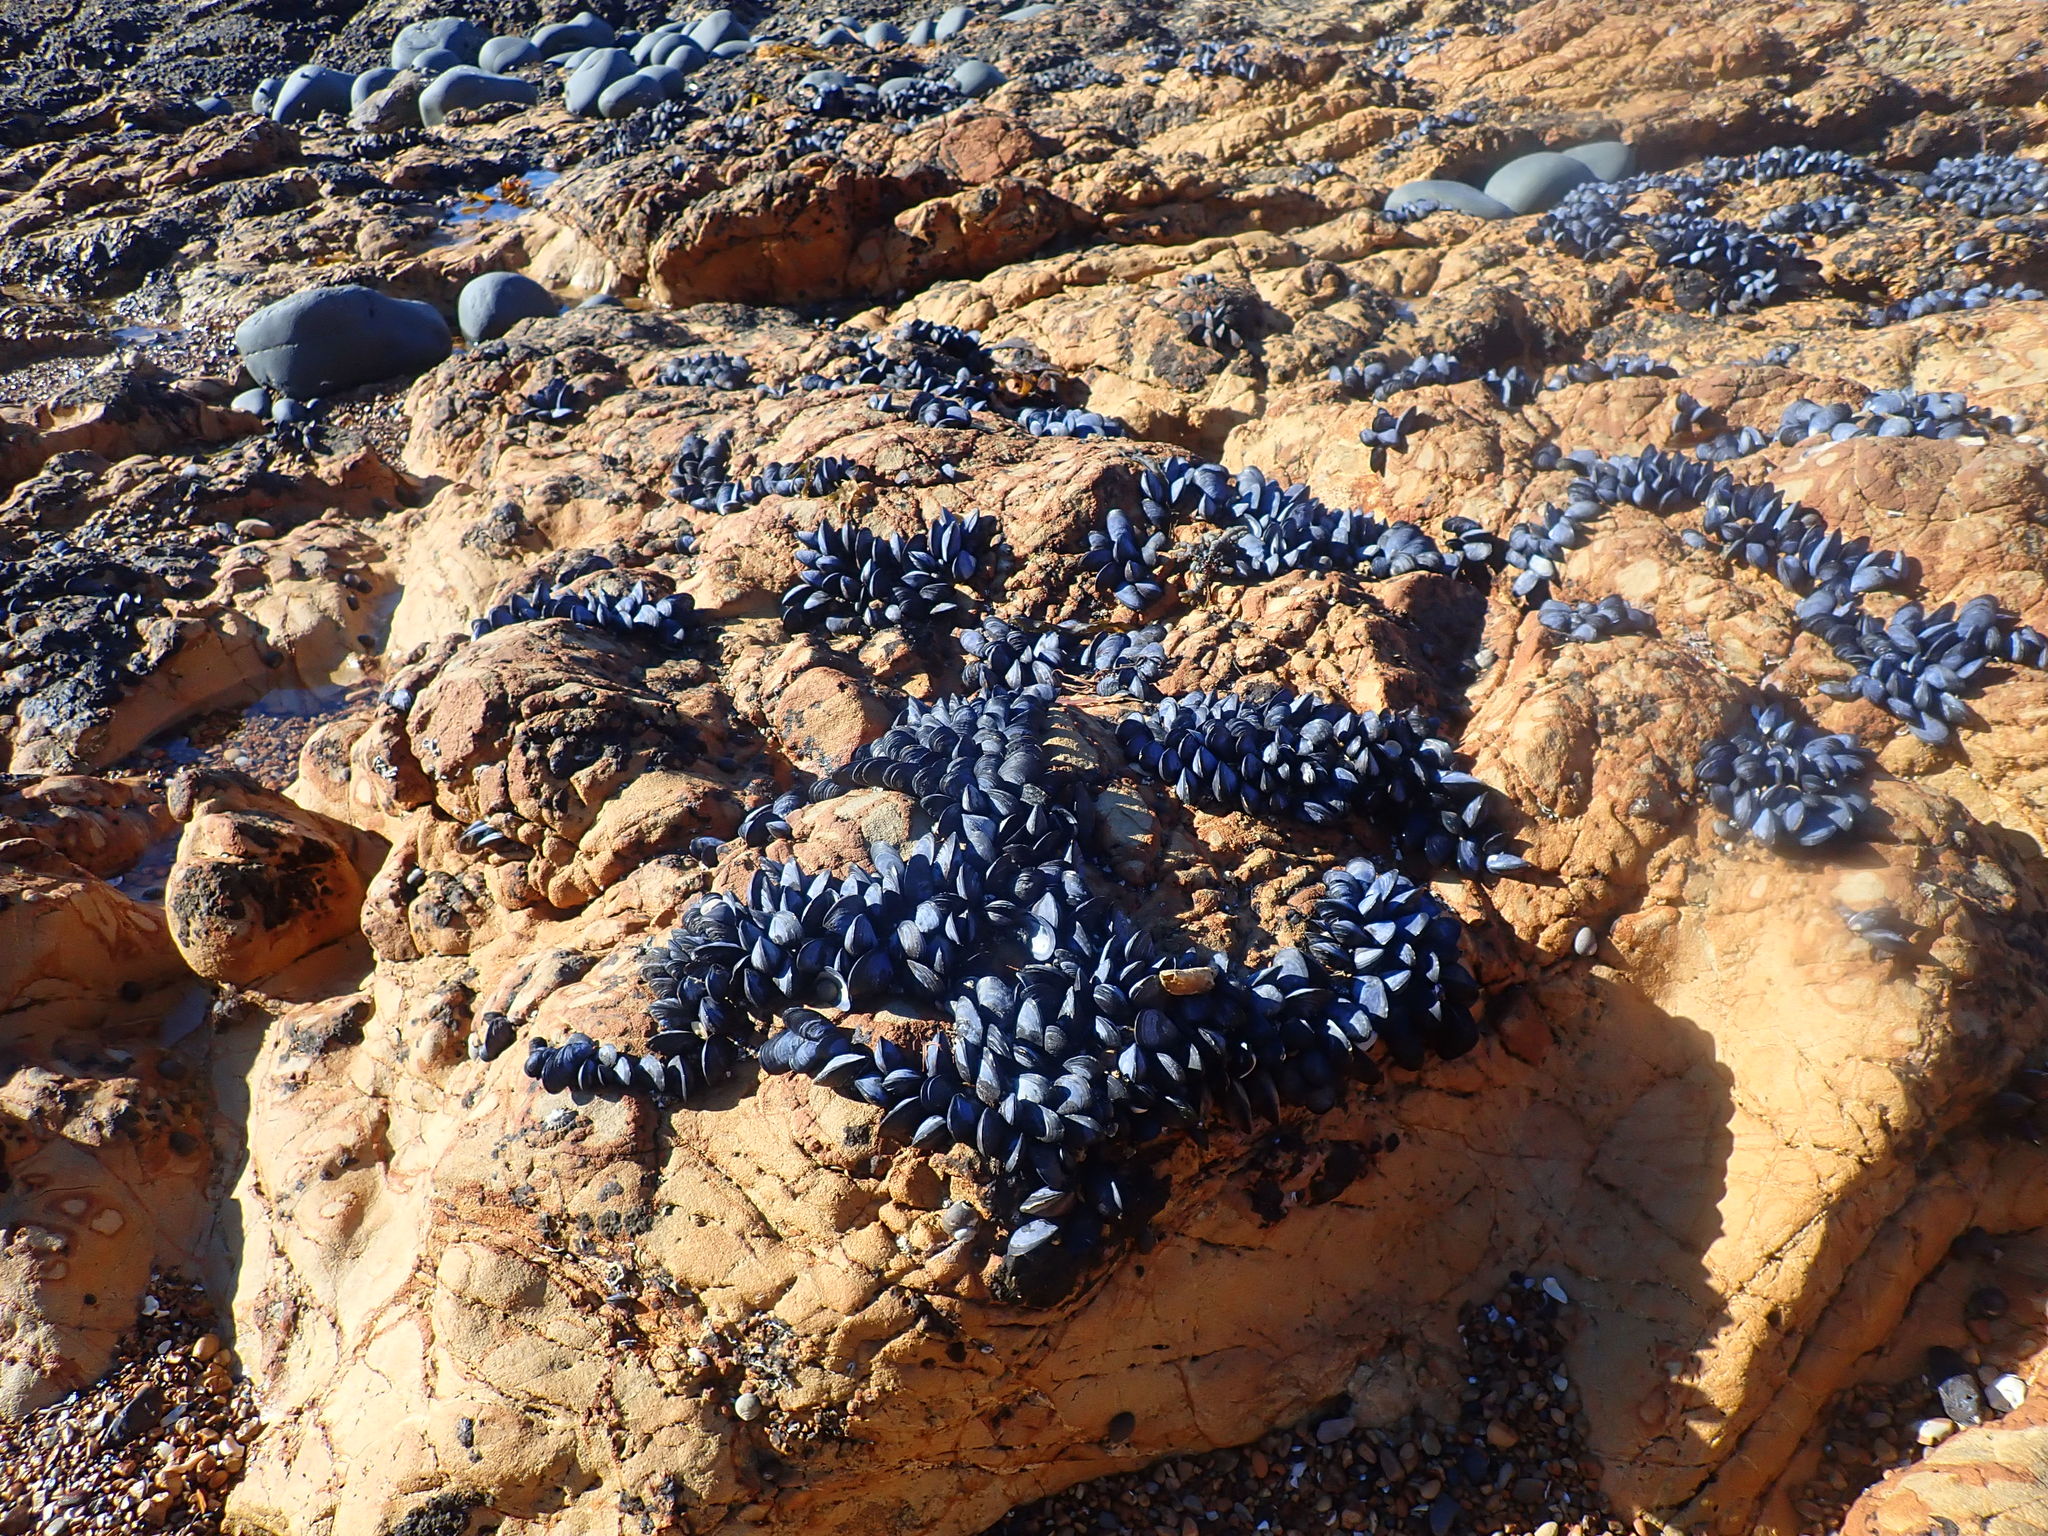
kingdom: Animalia
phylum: Mollusca
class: Bivalvia
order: Mytilida
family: Mytilidae
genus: Mytilus
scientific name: Mytilus planulatus
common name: Australian mussel
